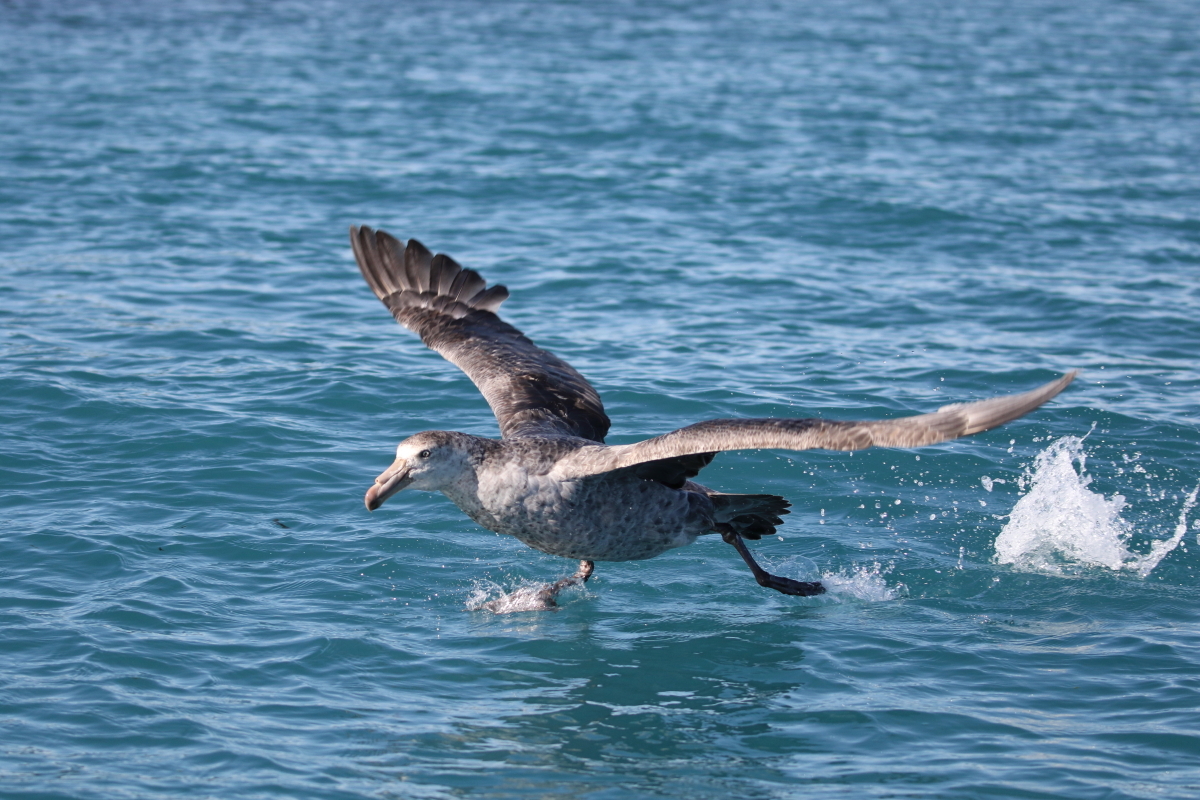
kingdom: Animalia
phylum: Chordata
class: Aves
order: Procellariiformes
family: Procellariidae
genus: Macronectes
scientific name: Macronectes halli
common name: Northern giant petrel
